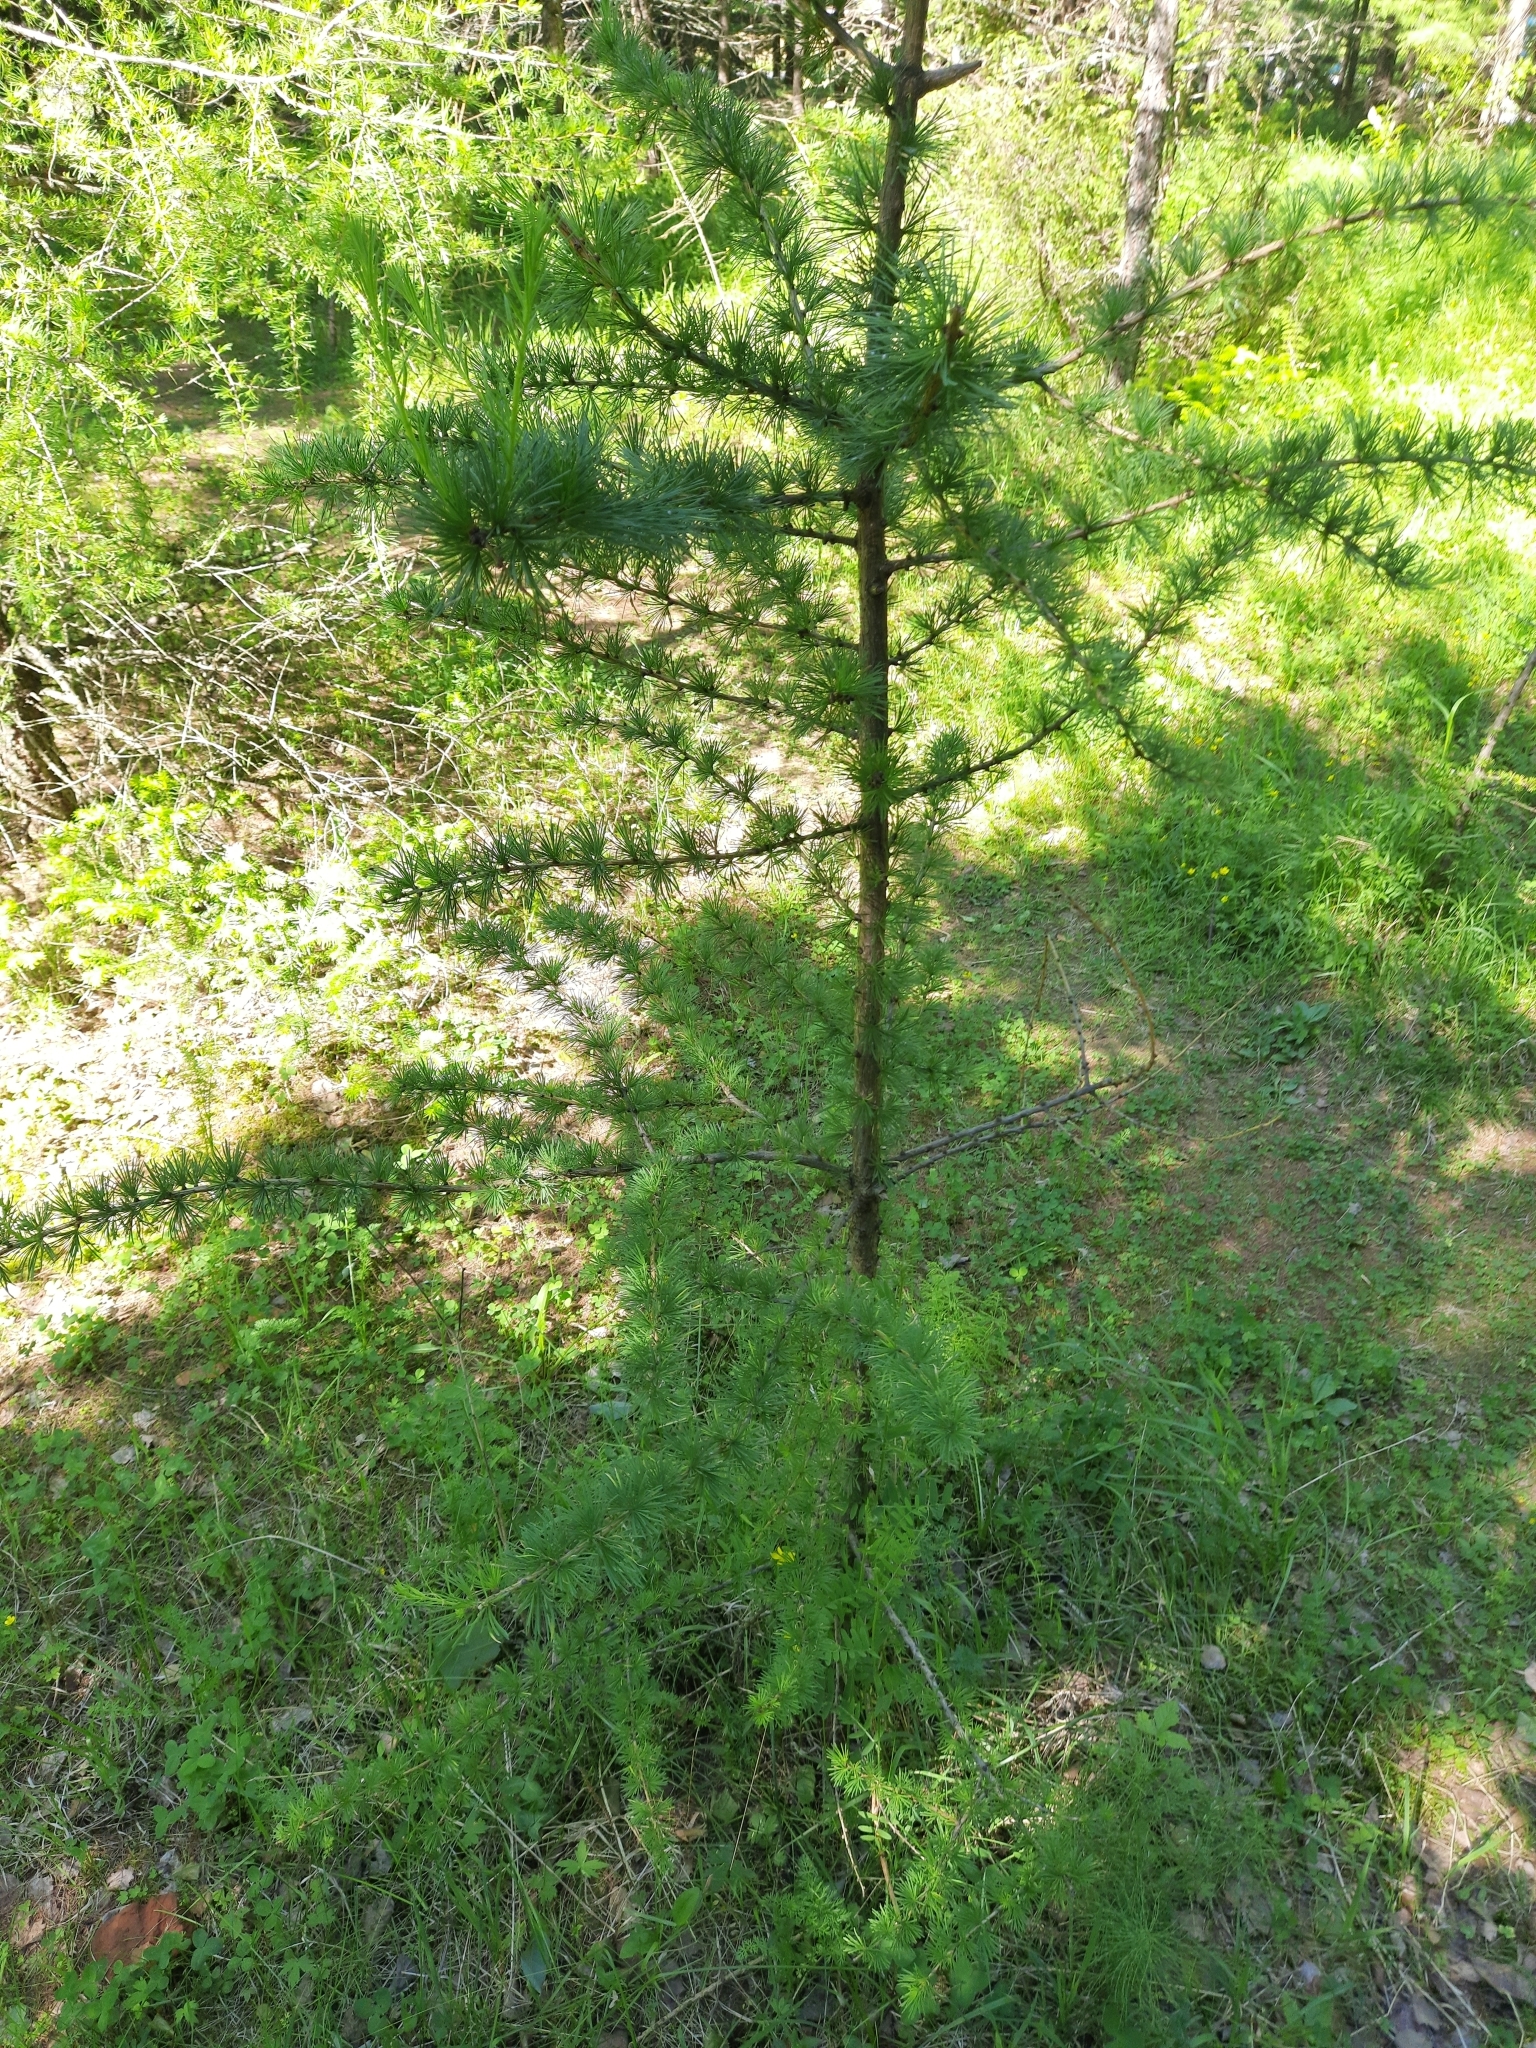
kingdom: Plantae
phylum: Tracheophyta
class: Pinopsida
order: Pinales
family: Pinaceae
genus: Larix
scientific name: Larix sibirica
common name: Siberian larch
